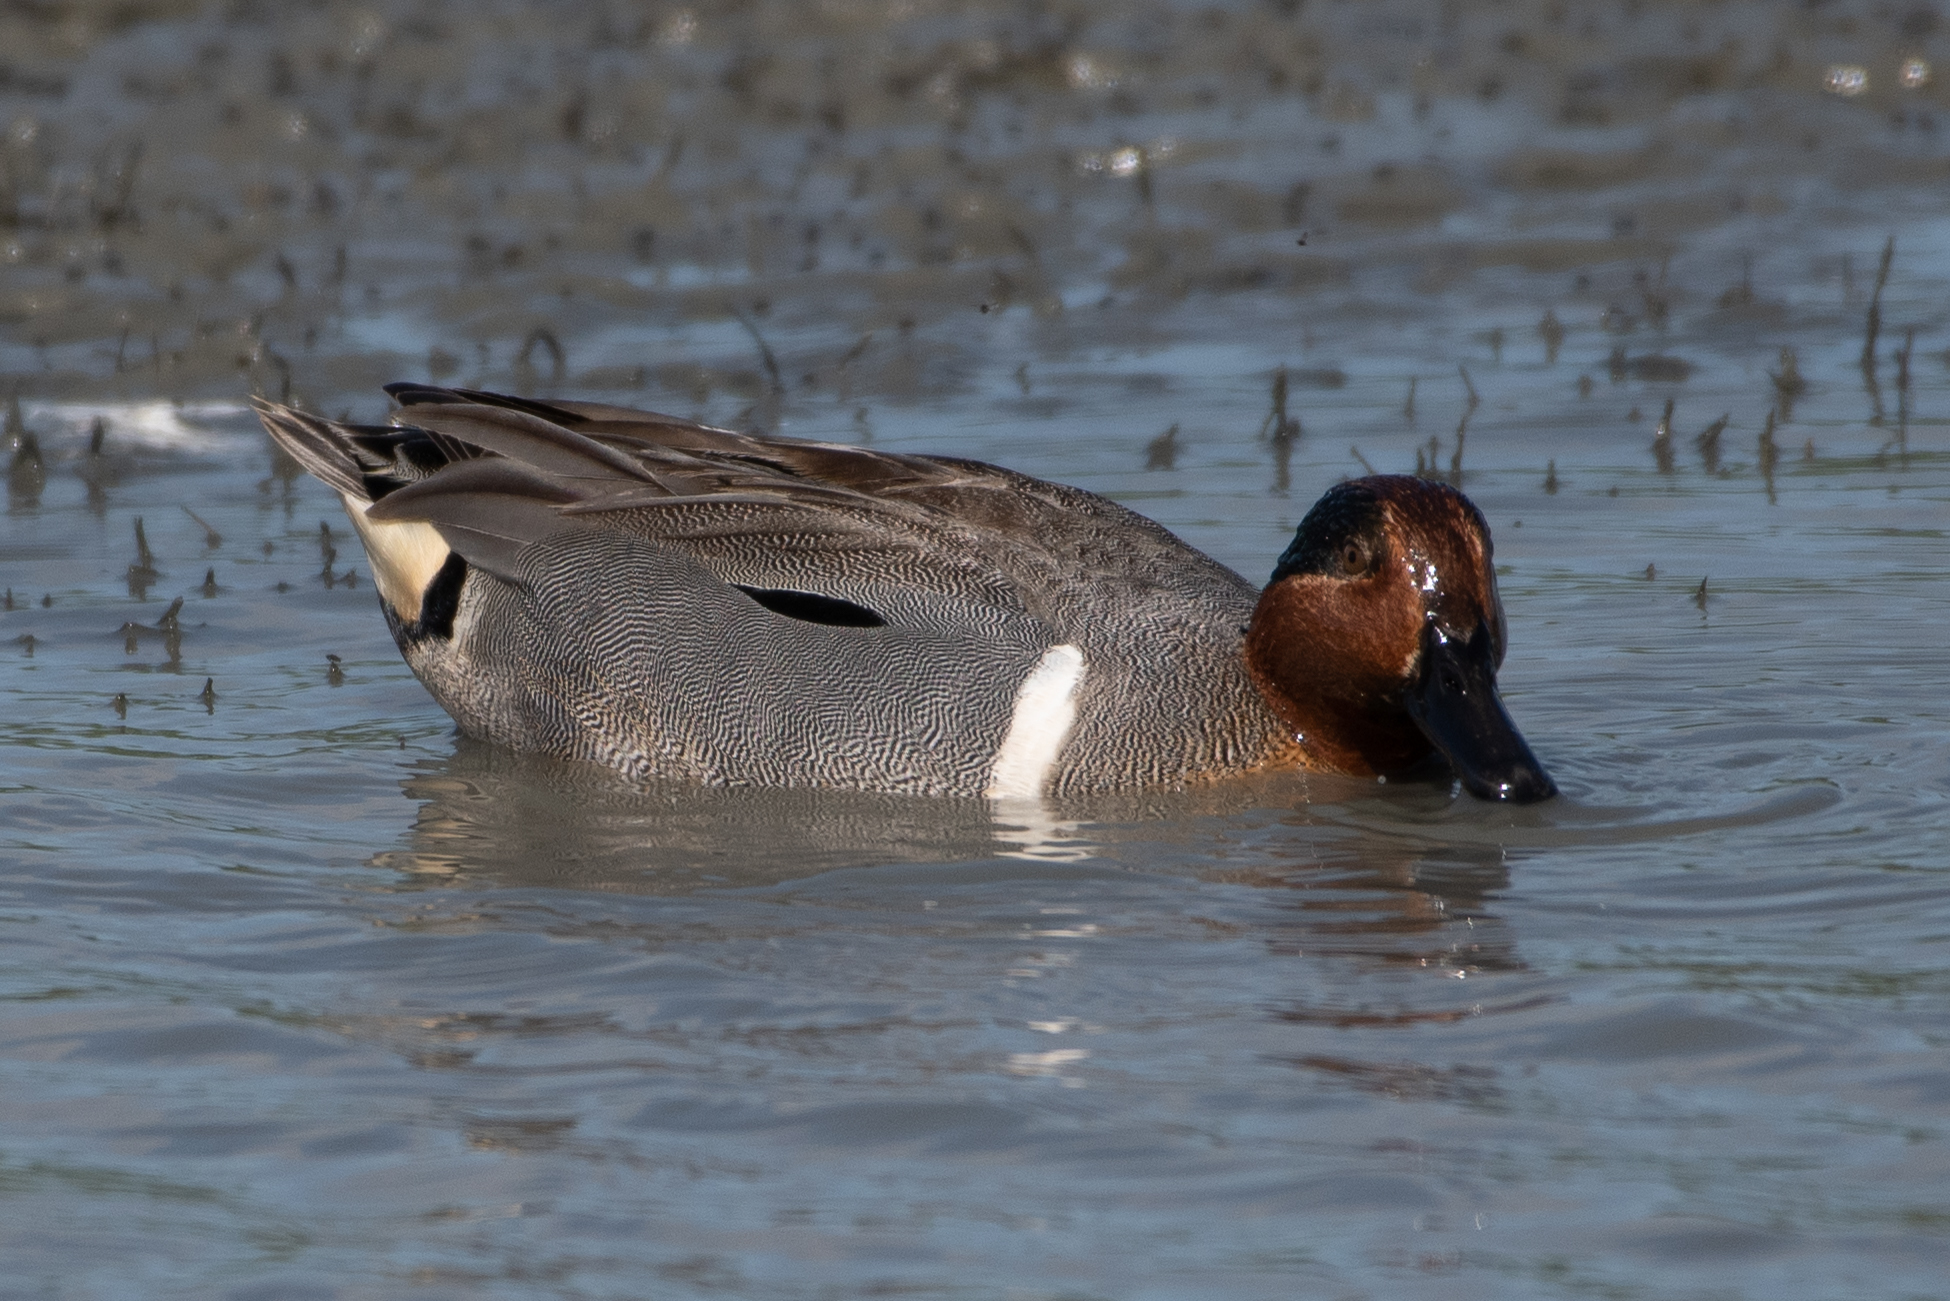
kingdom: Animalia
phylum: Chordata
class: Aves
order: Anseriformes
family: Anatidae
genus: Anas
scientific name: Anas crecca
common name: Eurasian teal
